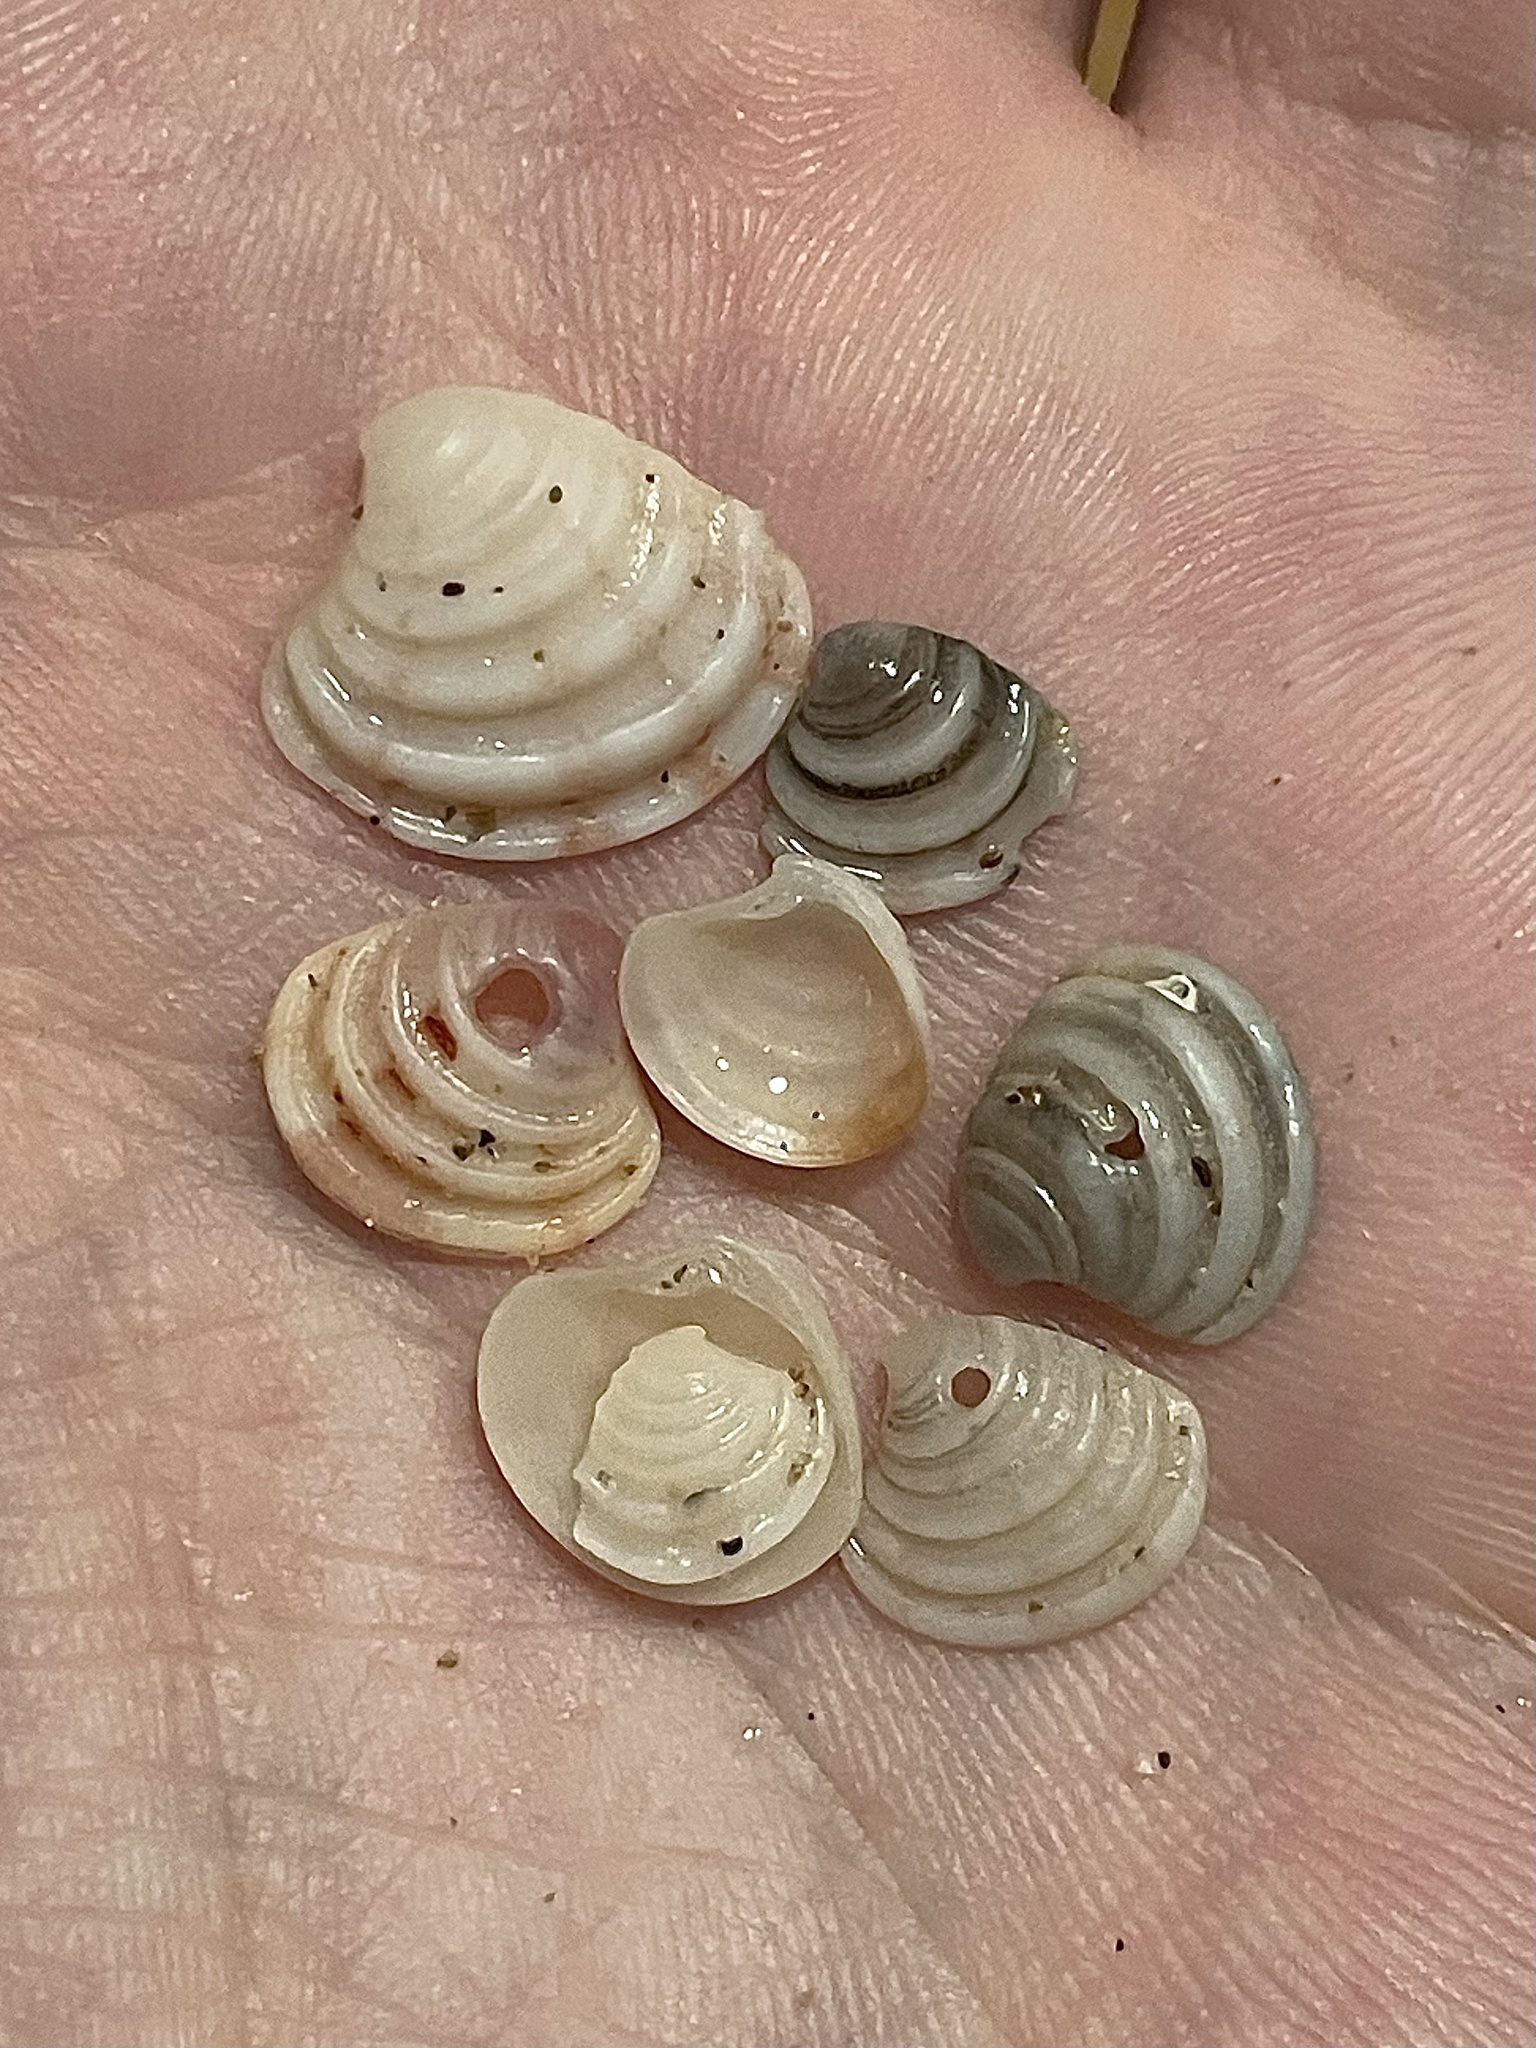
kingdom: Animalia
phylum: Mollusca
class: Bivalvia
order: Venerida
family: Veneridae
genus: Clausinella
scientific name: Clausinella fasciata
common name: Banded venus
